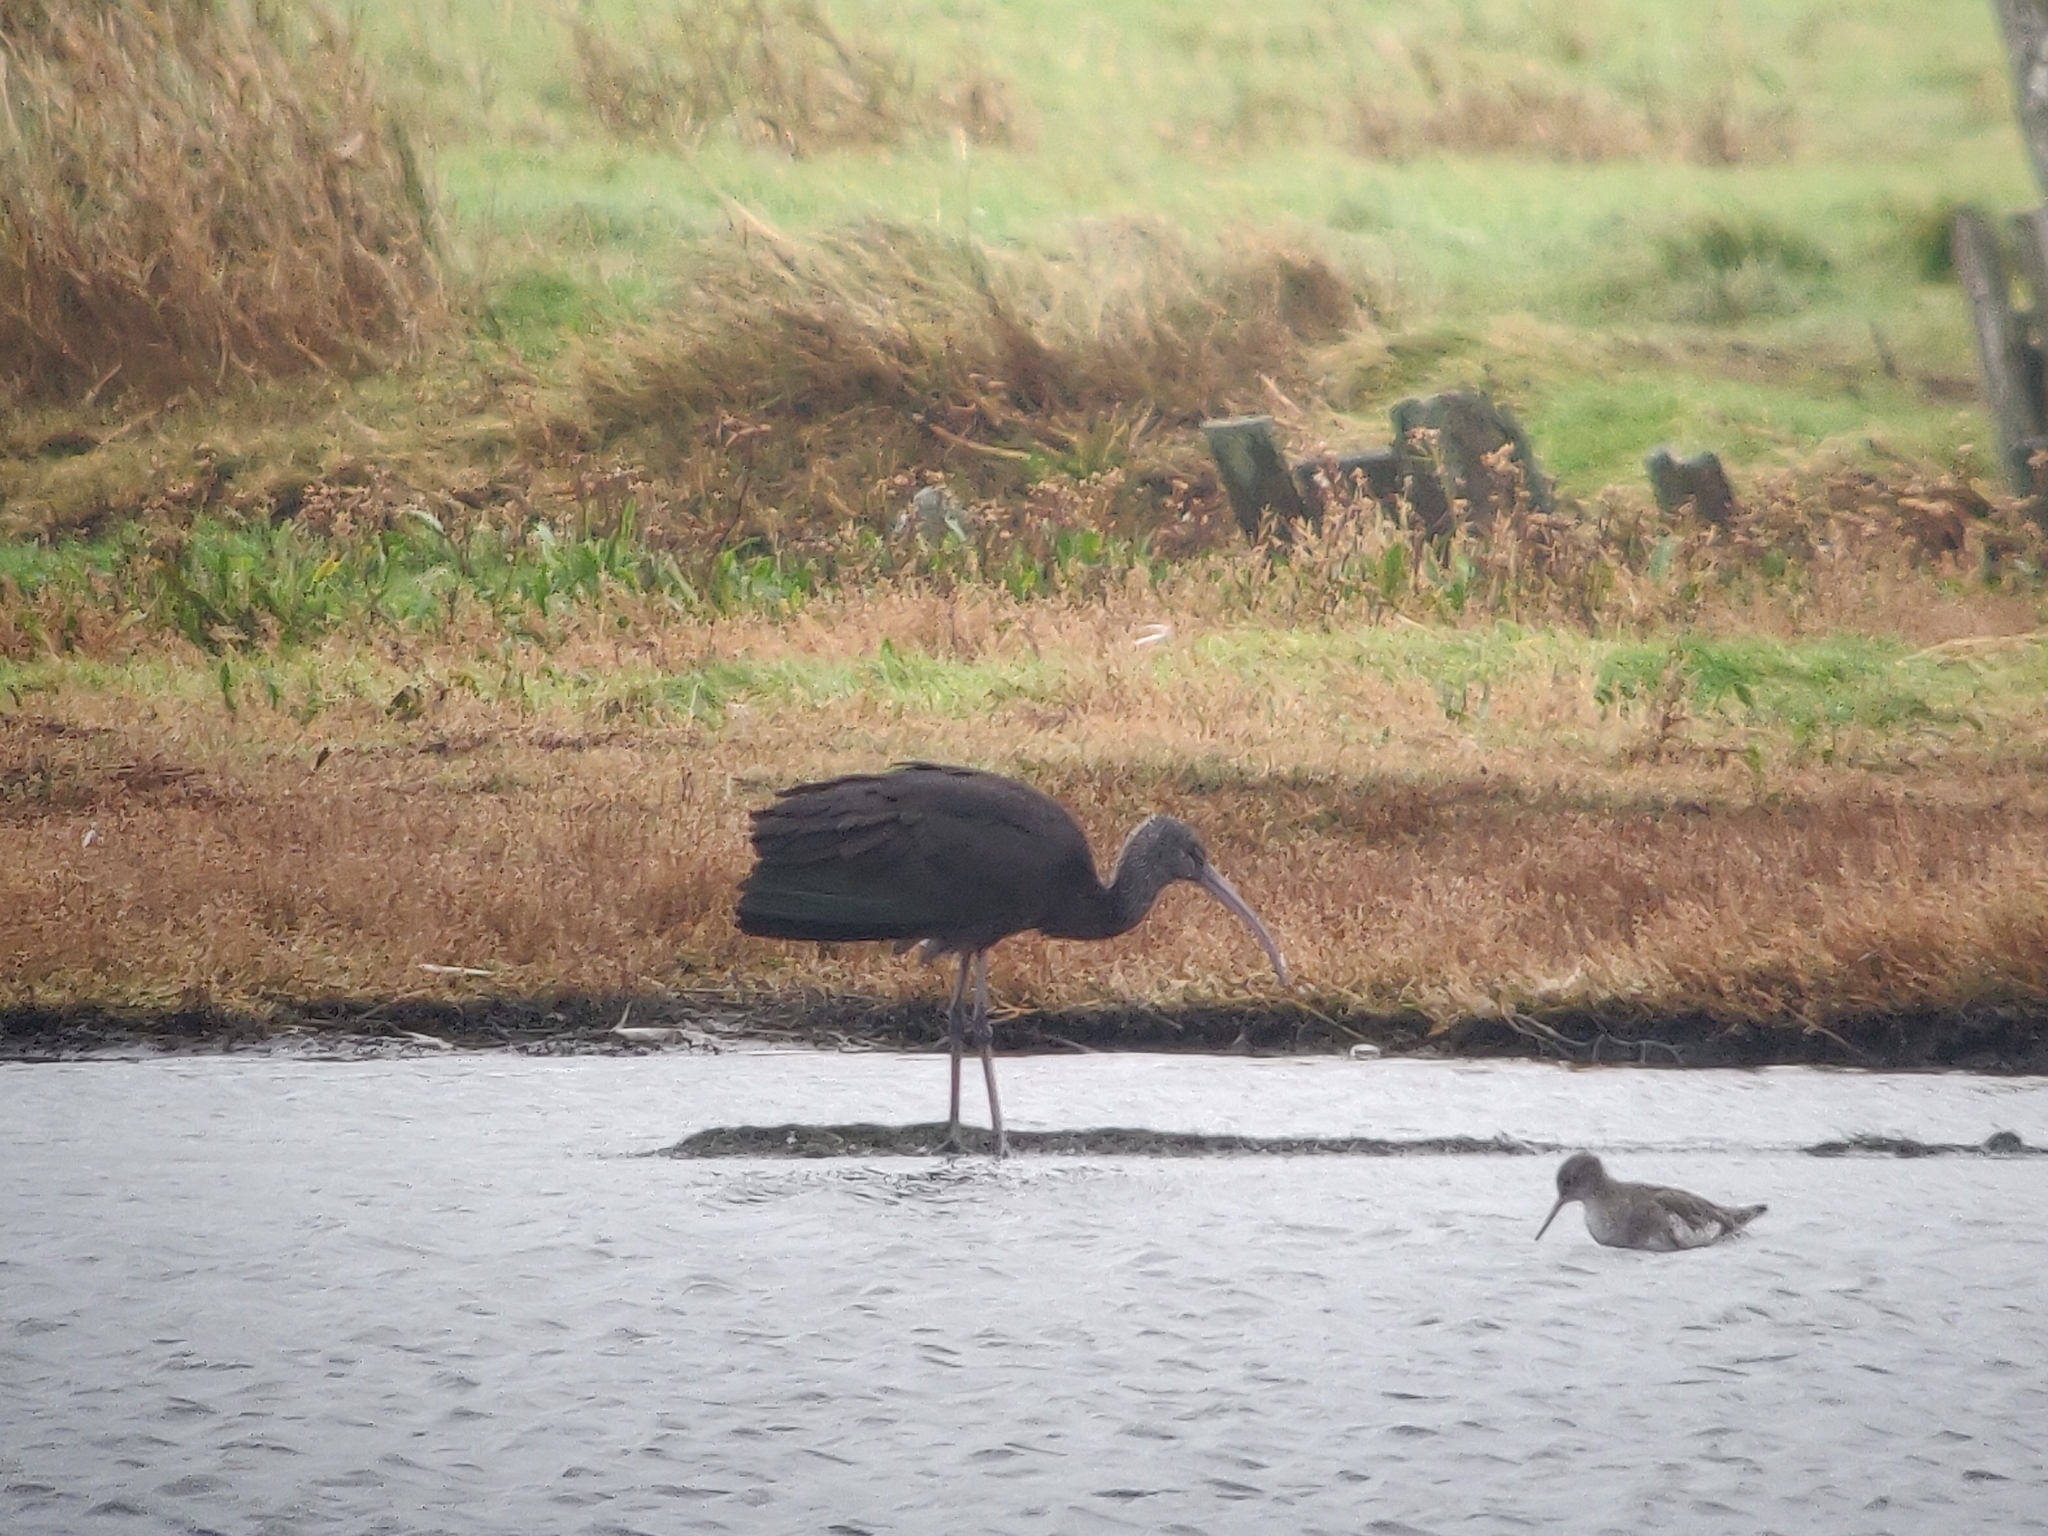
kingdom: Animalia
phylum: Chordata
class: Aves
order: Pelecaniformes
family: Threskiornithidae
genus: Plegadis
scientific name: Plegadis falcinellus
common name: Glossy ibis
